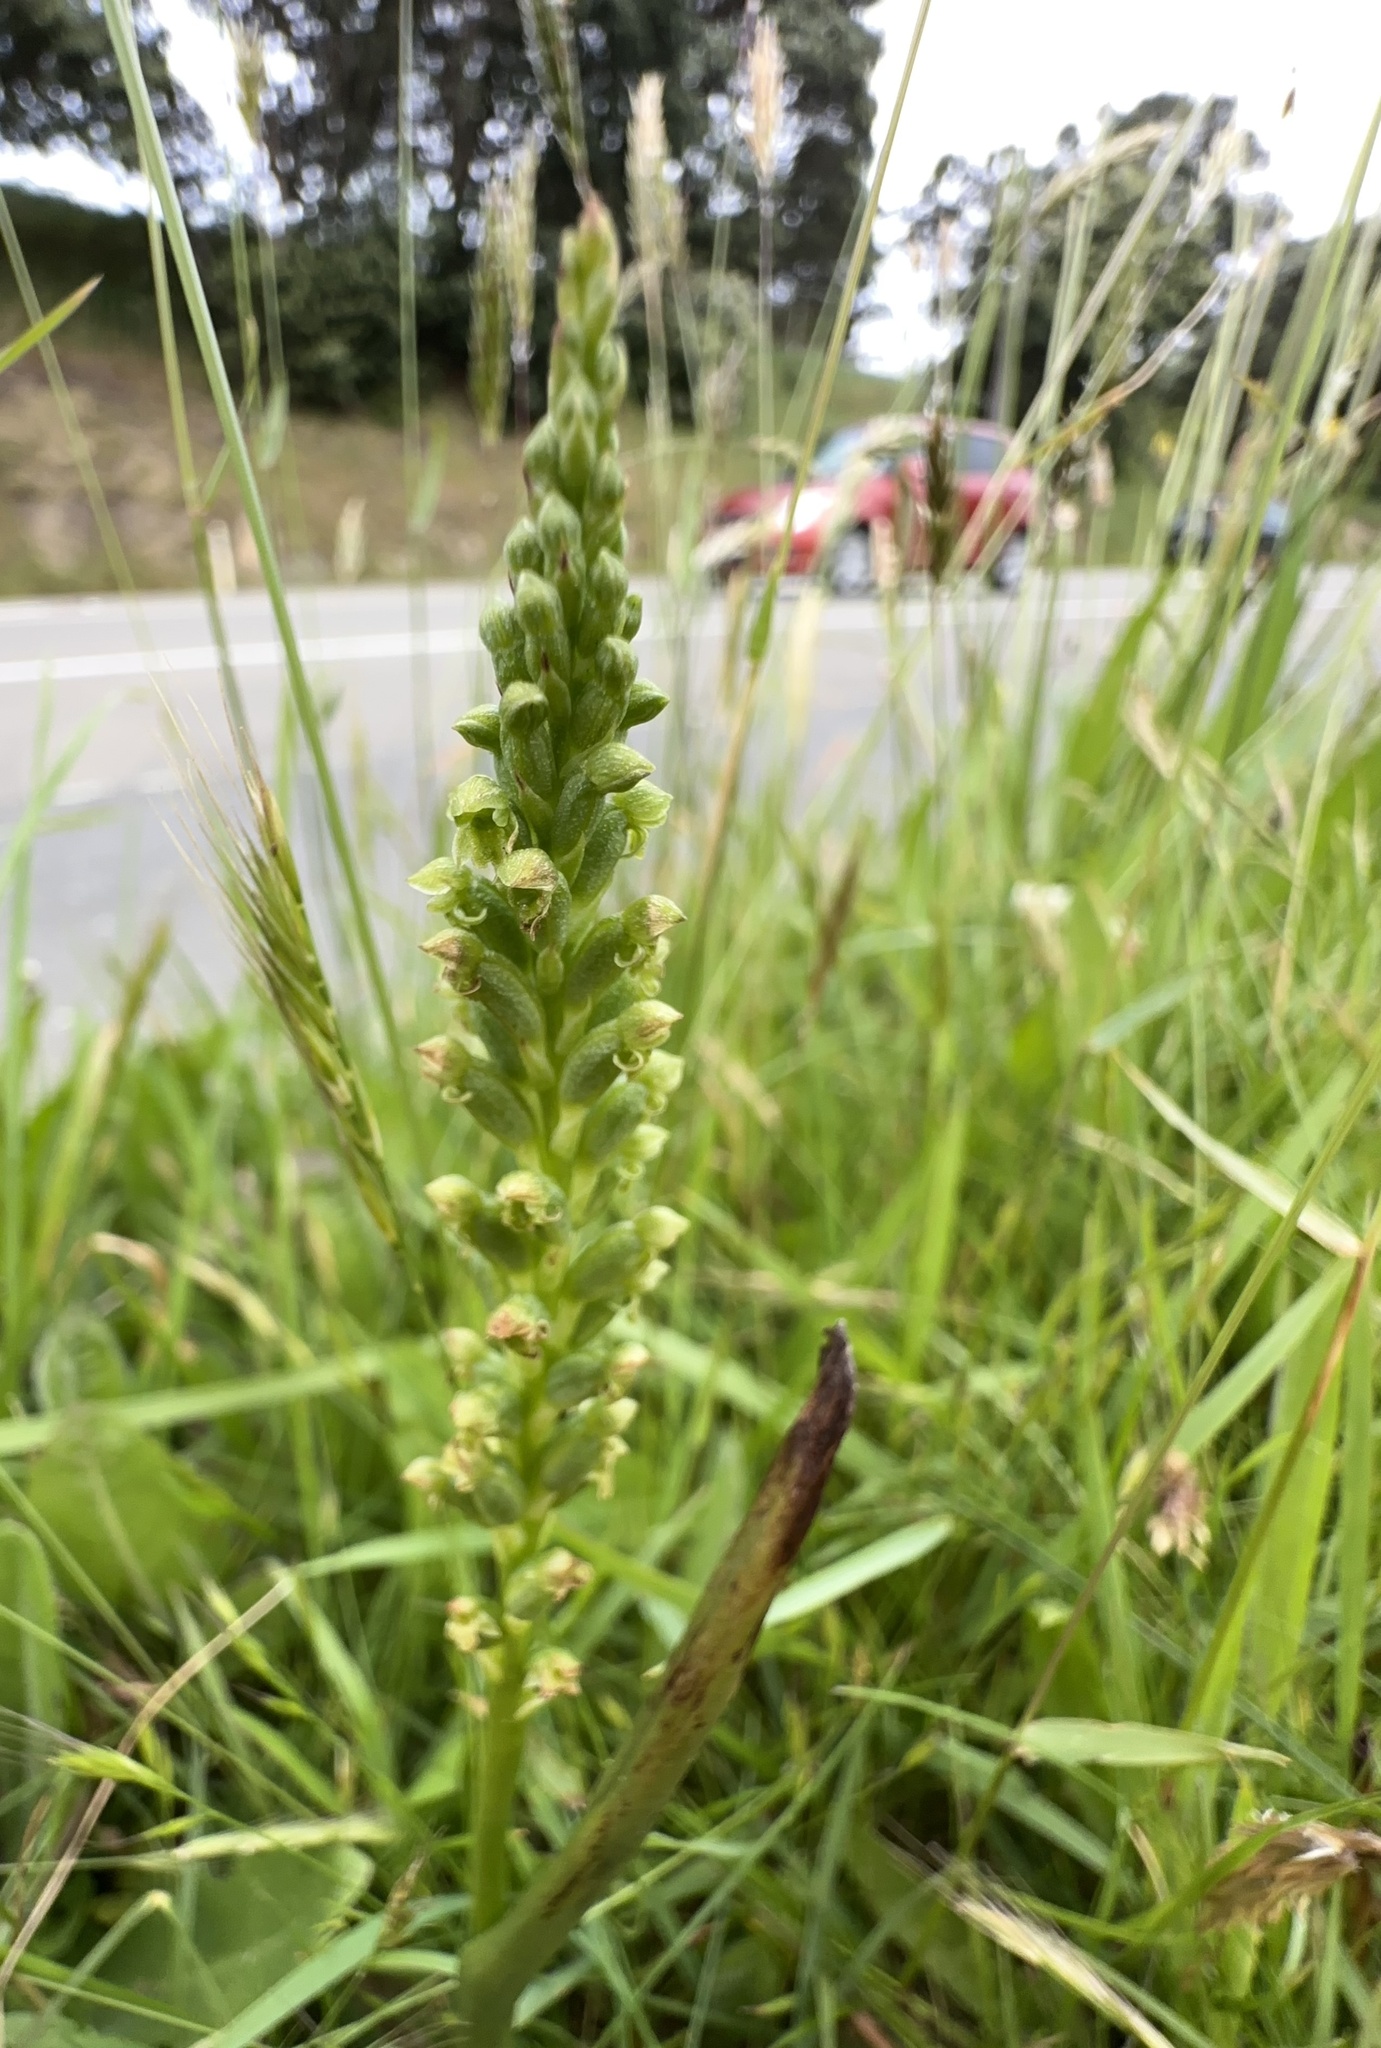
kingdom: Plantae
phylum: Tracheophyta
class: Liliopsida
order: Asparagales
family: Orchidaceae
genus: Microtis
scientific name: Microtis unifolia
